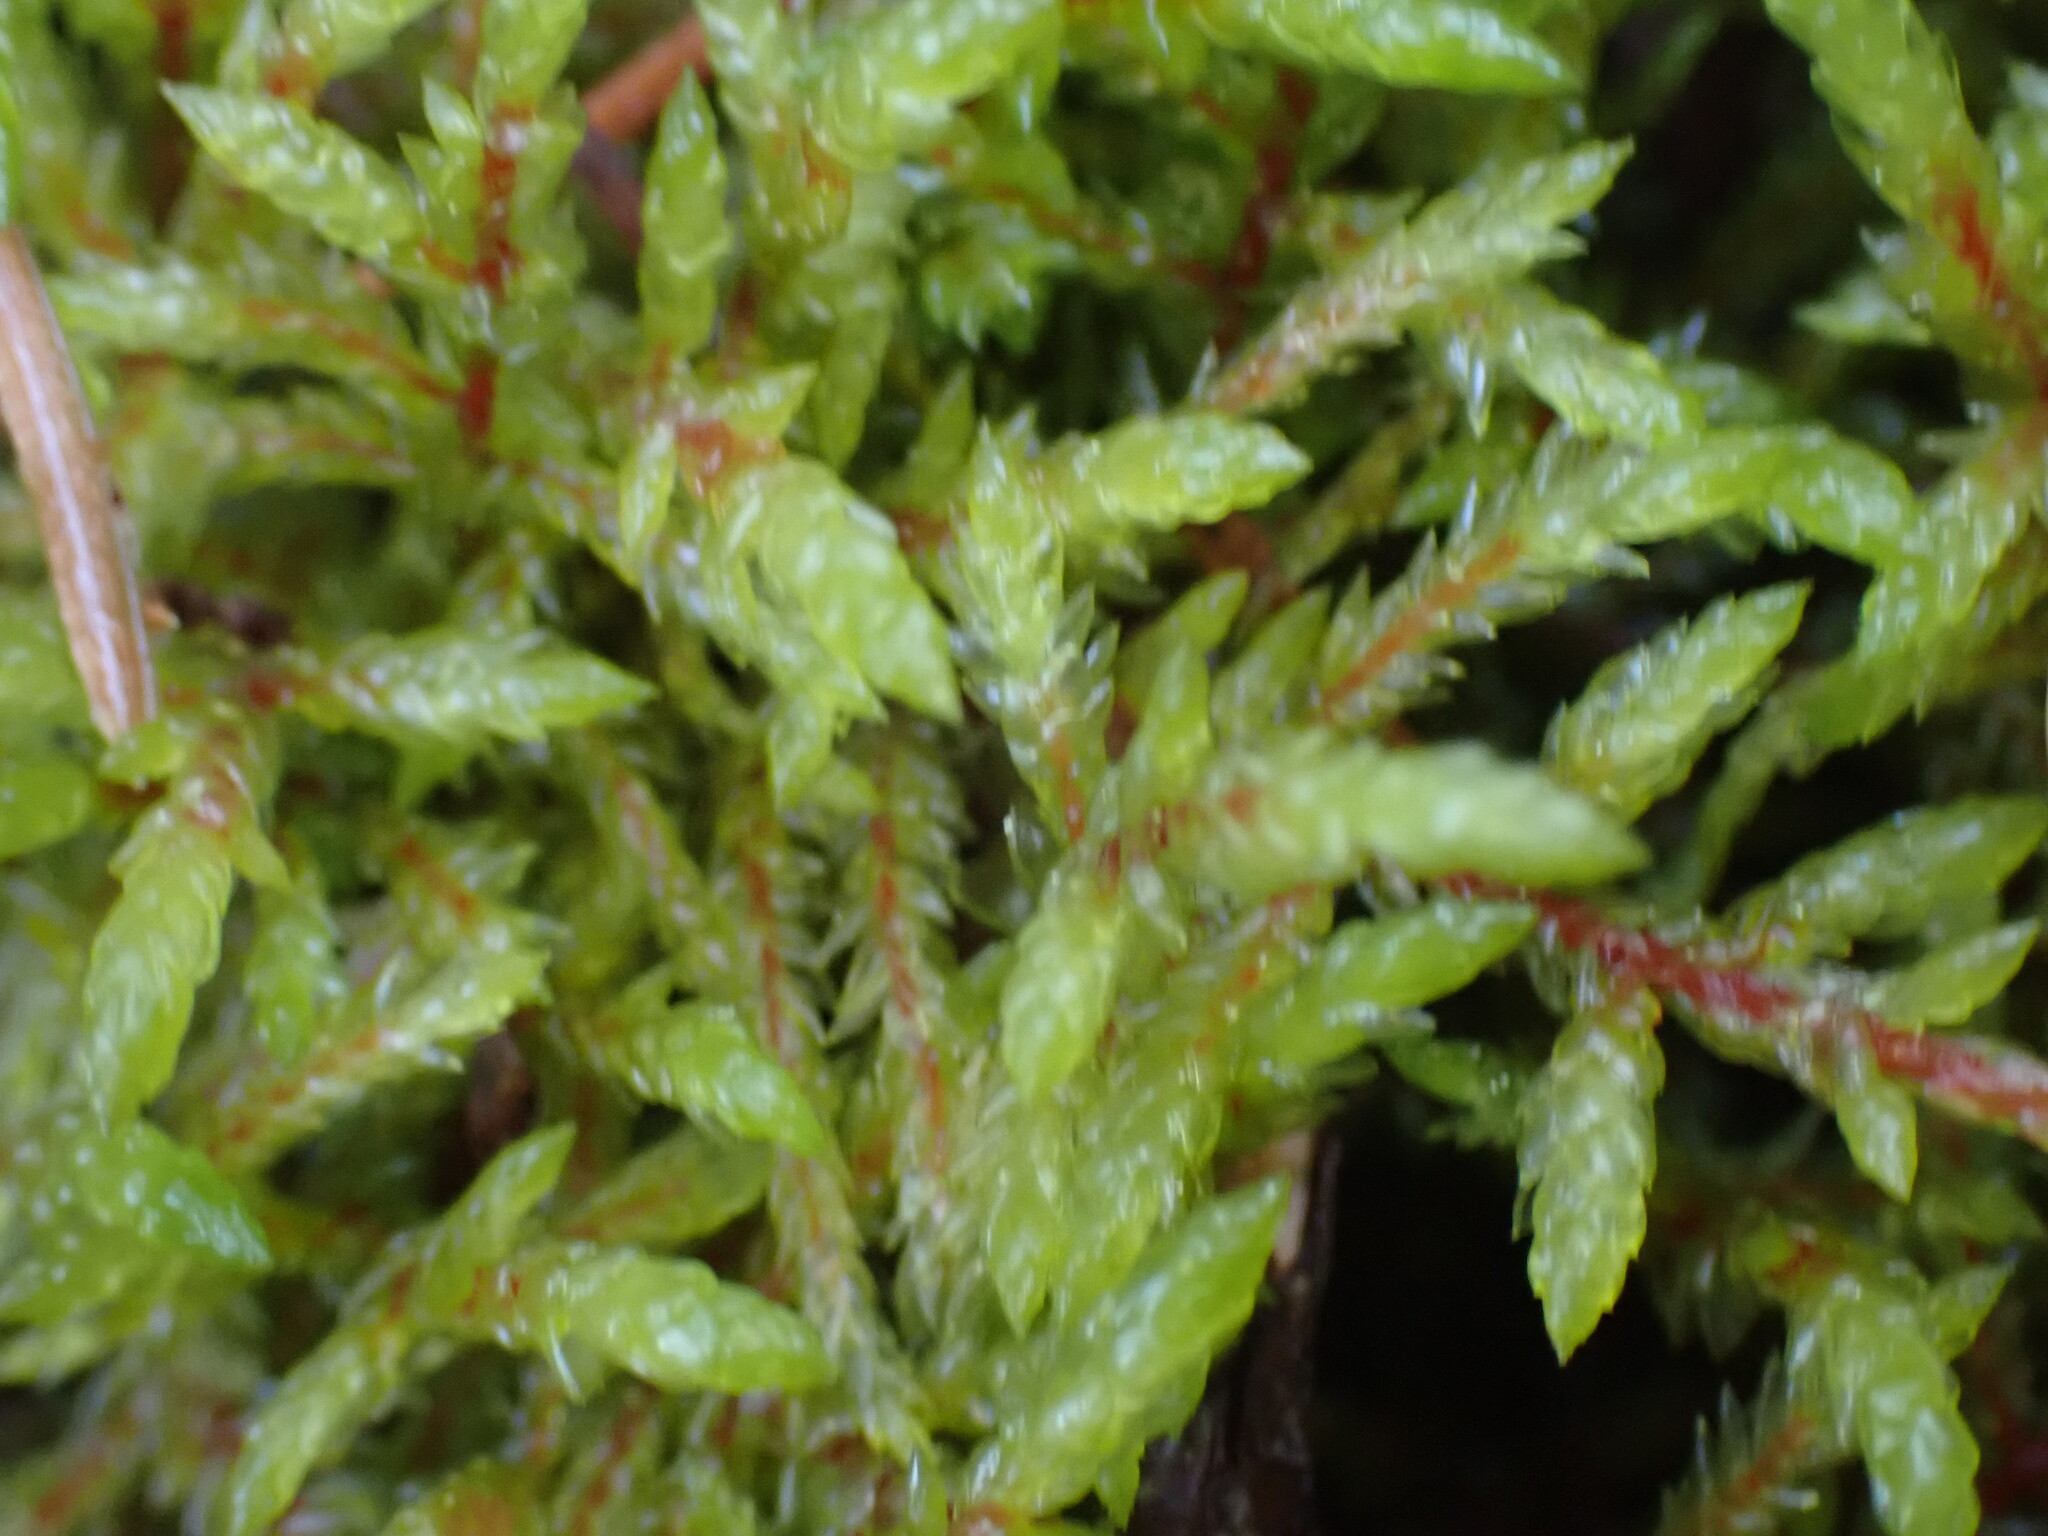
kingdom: Plantae
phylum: Bryophyta
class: Bryopsida
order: Hypnales
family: Hylocomiaceae
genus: Pleurozium
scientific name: Pleurozium schreberi
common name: Red-stemmed feather moss
